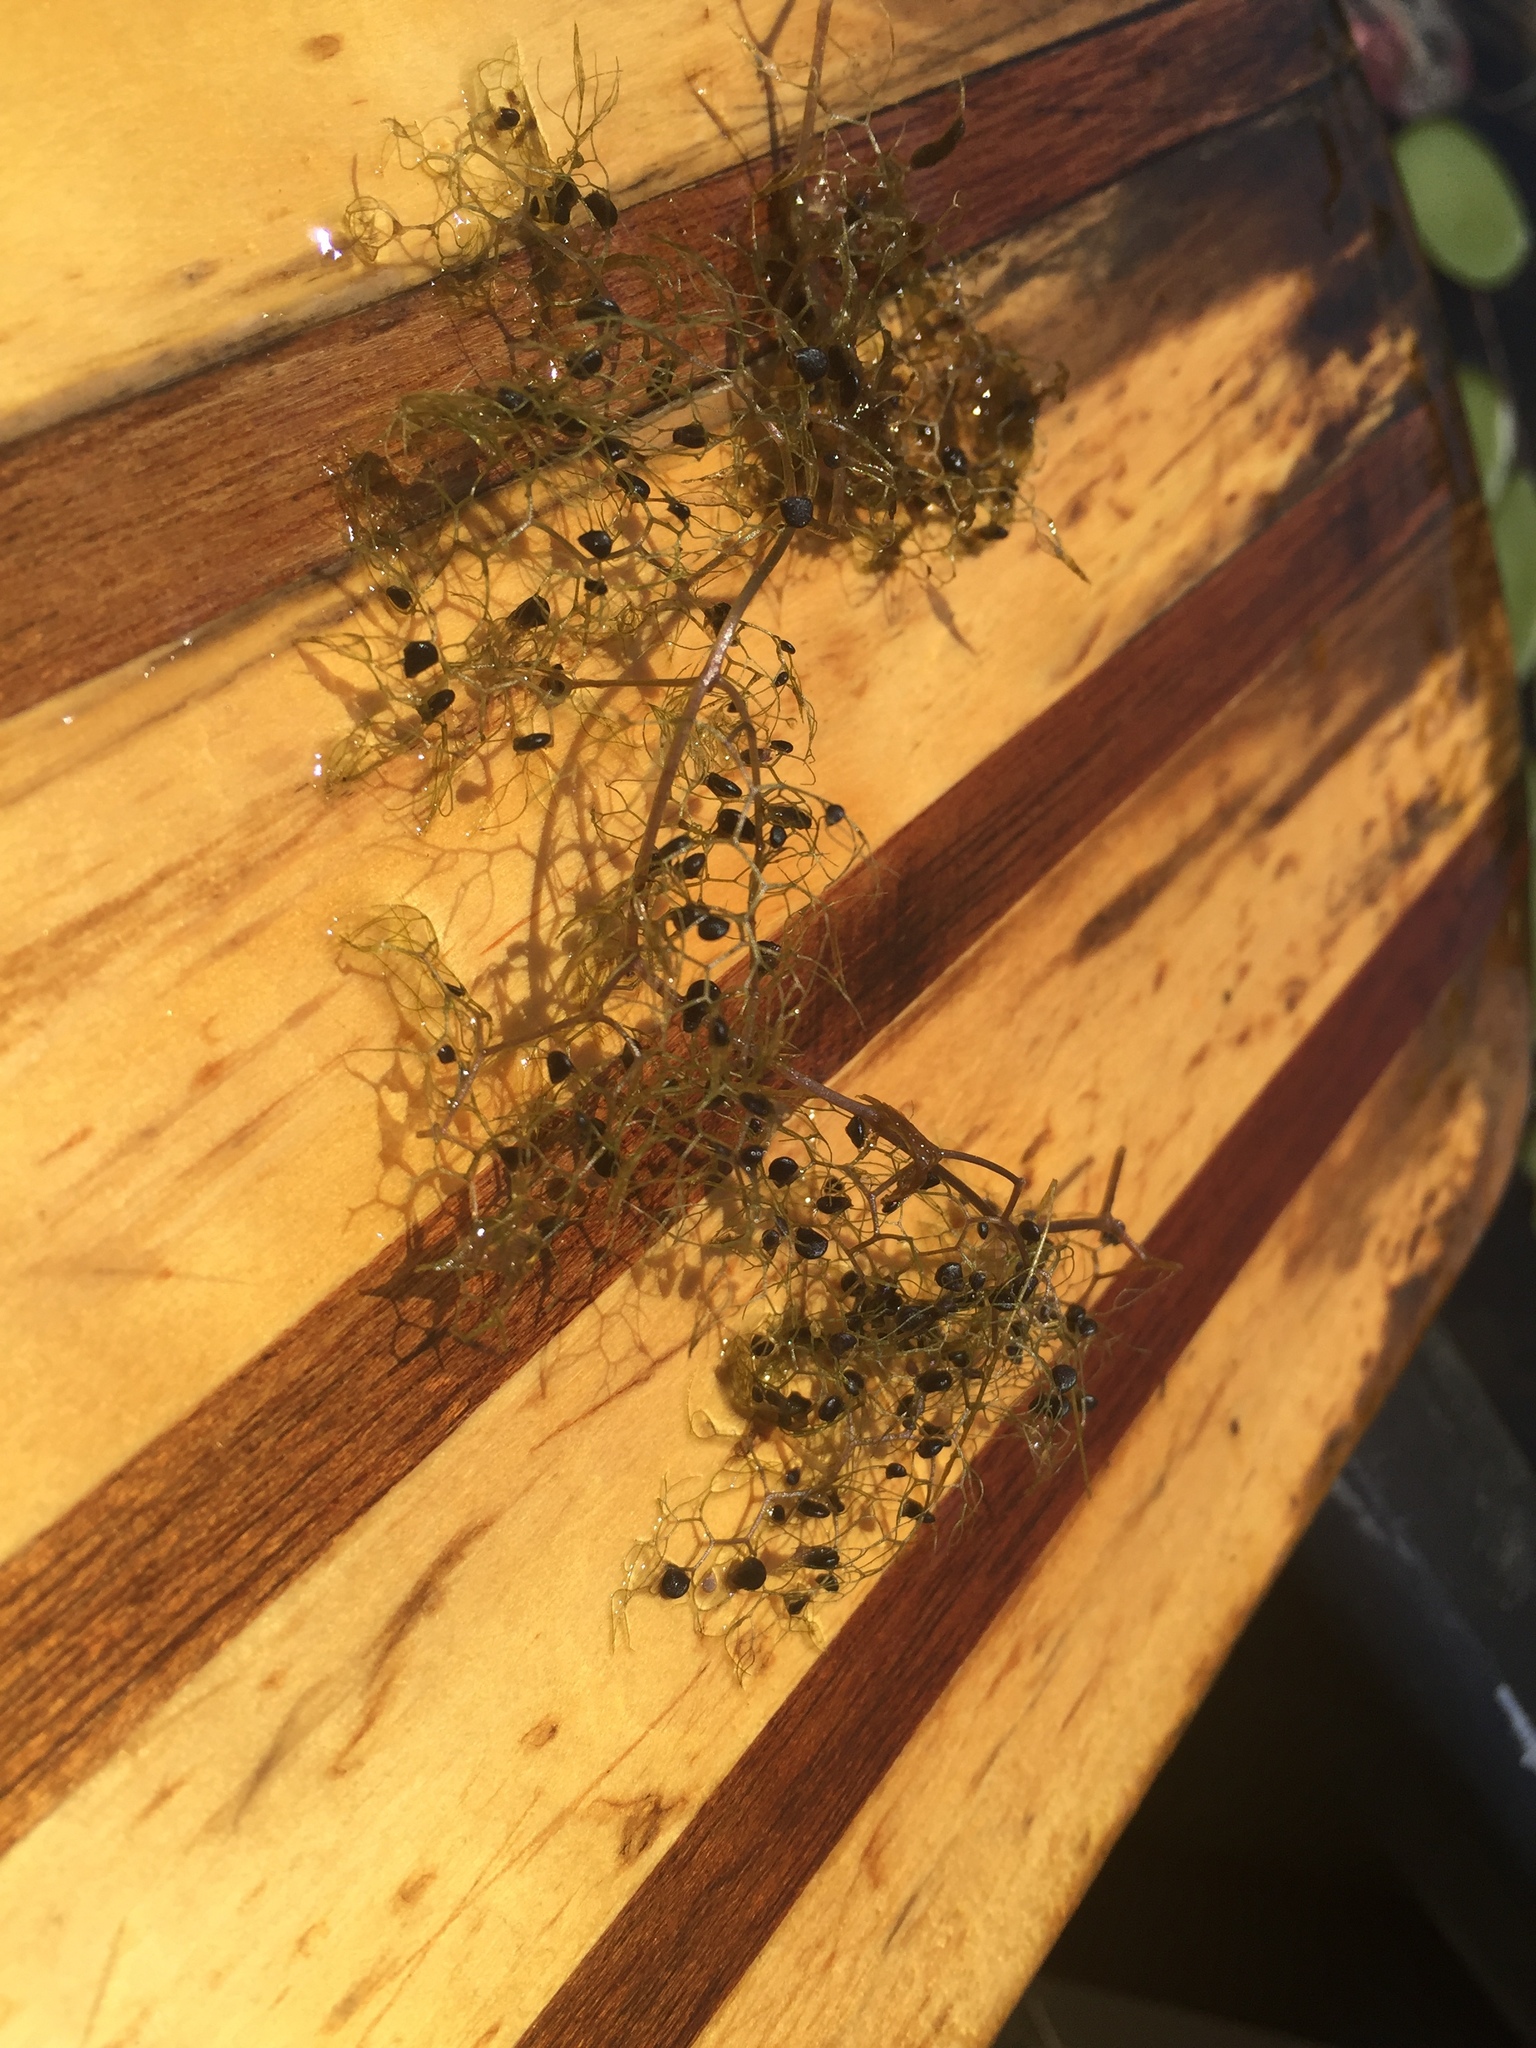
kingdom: Plantae
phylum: Tracheophyta
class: Magnoliopsida
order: Lamiales
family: Lentibulariaceae
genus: Utricularia
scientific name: Utricularia inflata
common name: Floating bladderwort
